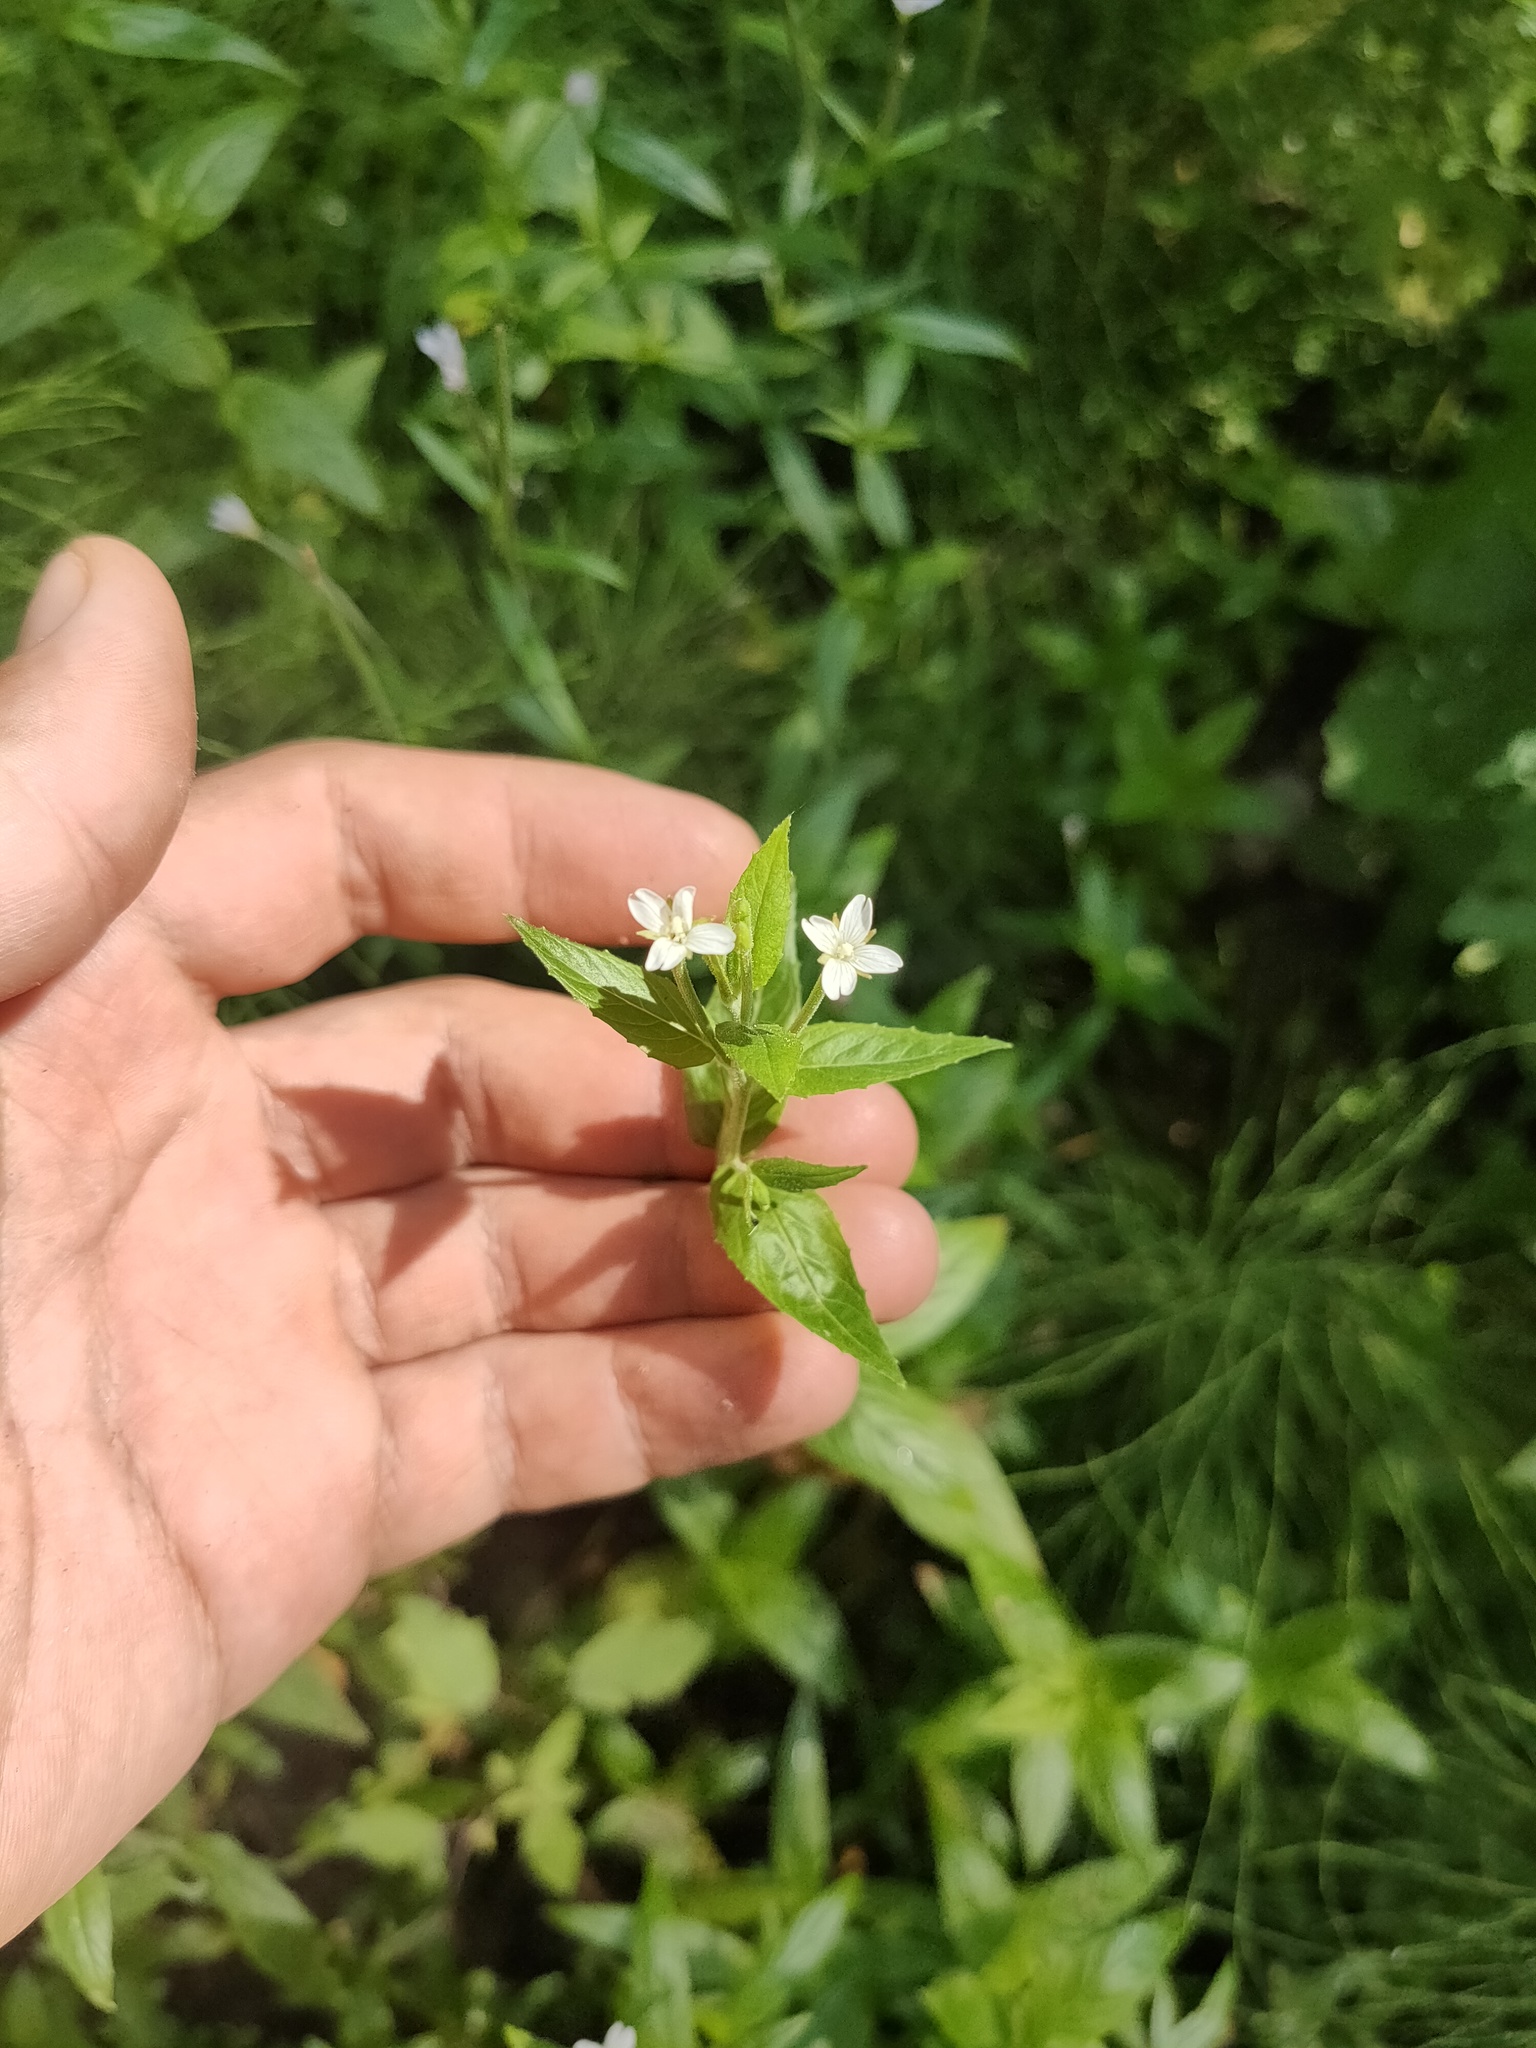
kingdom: Plantae
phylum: Tracheophyta
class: Magnoliopsida
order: Myrtales
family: Onagraceae
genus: Epilobium
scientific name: Epilobium pseudorubescens
